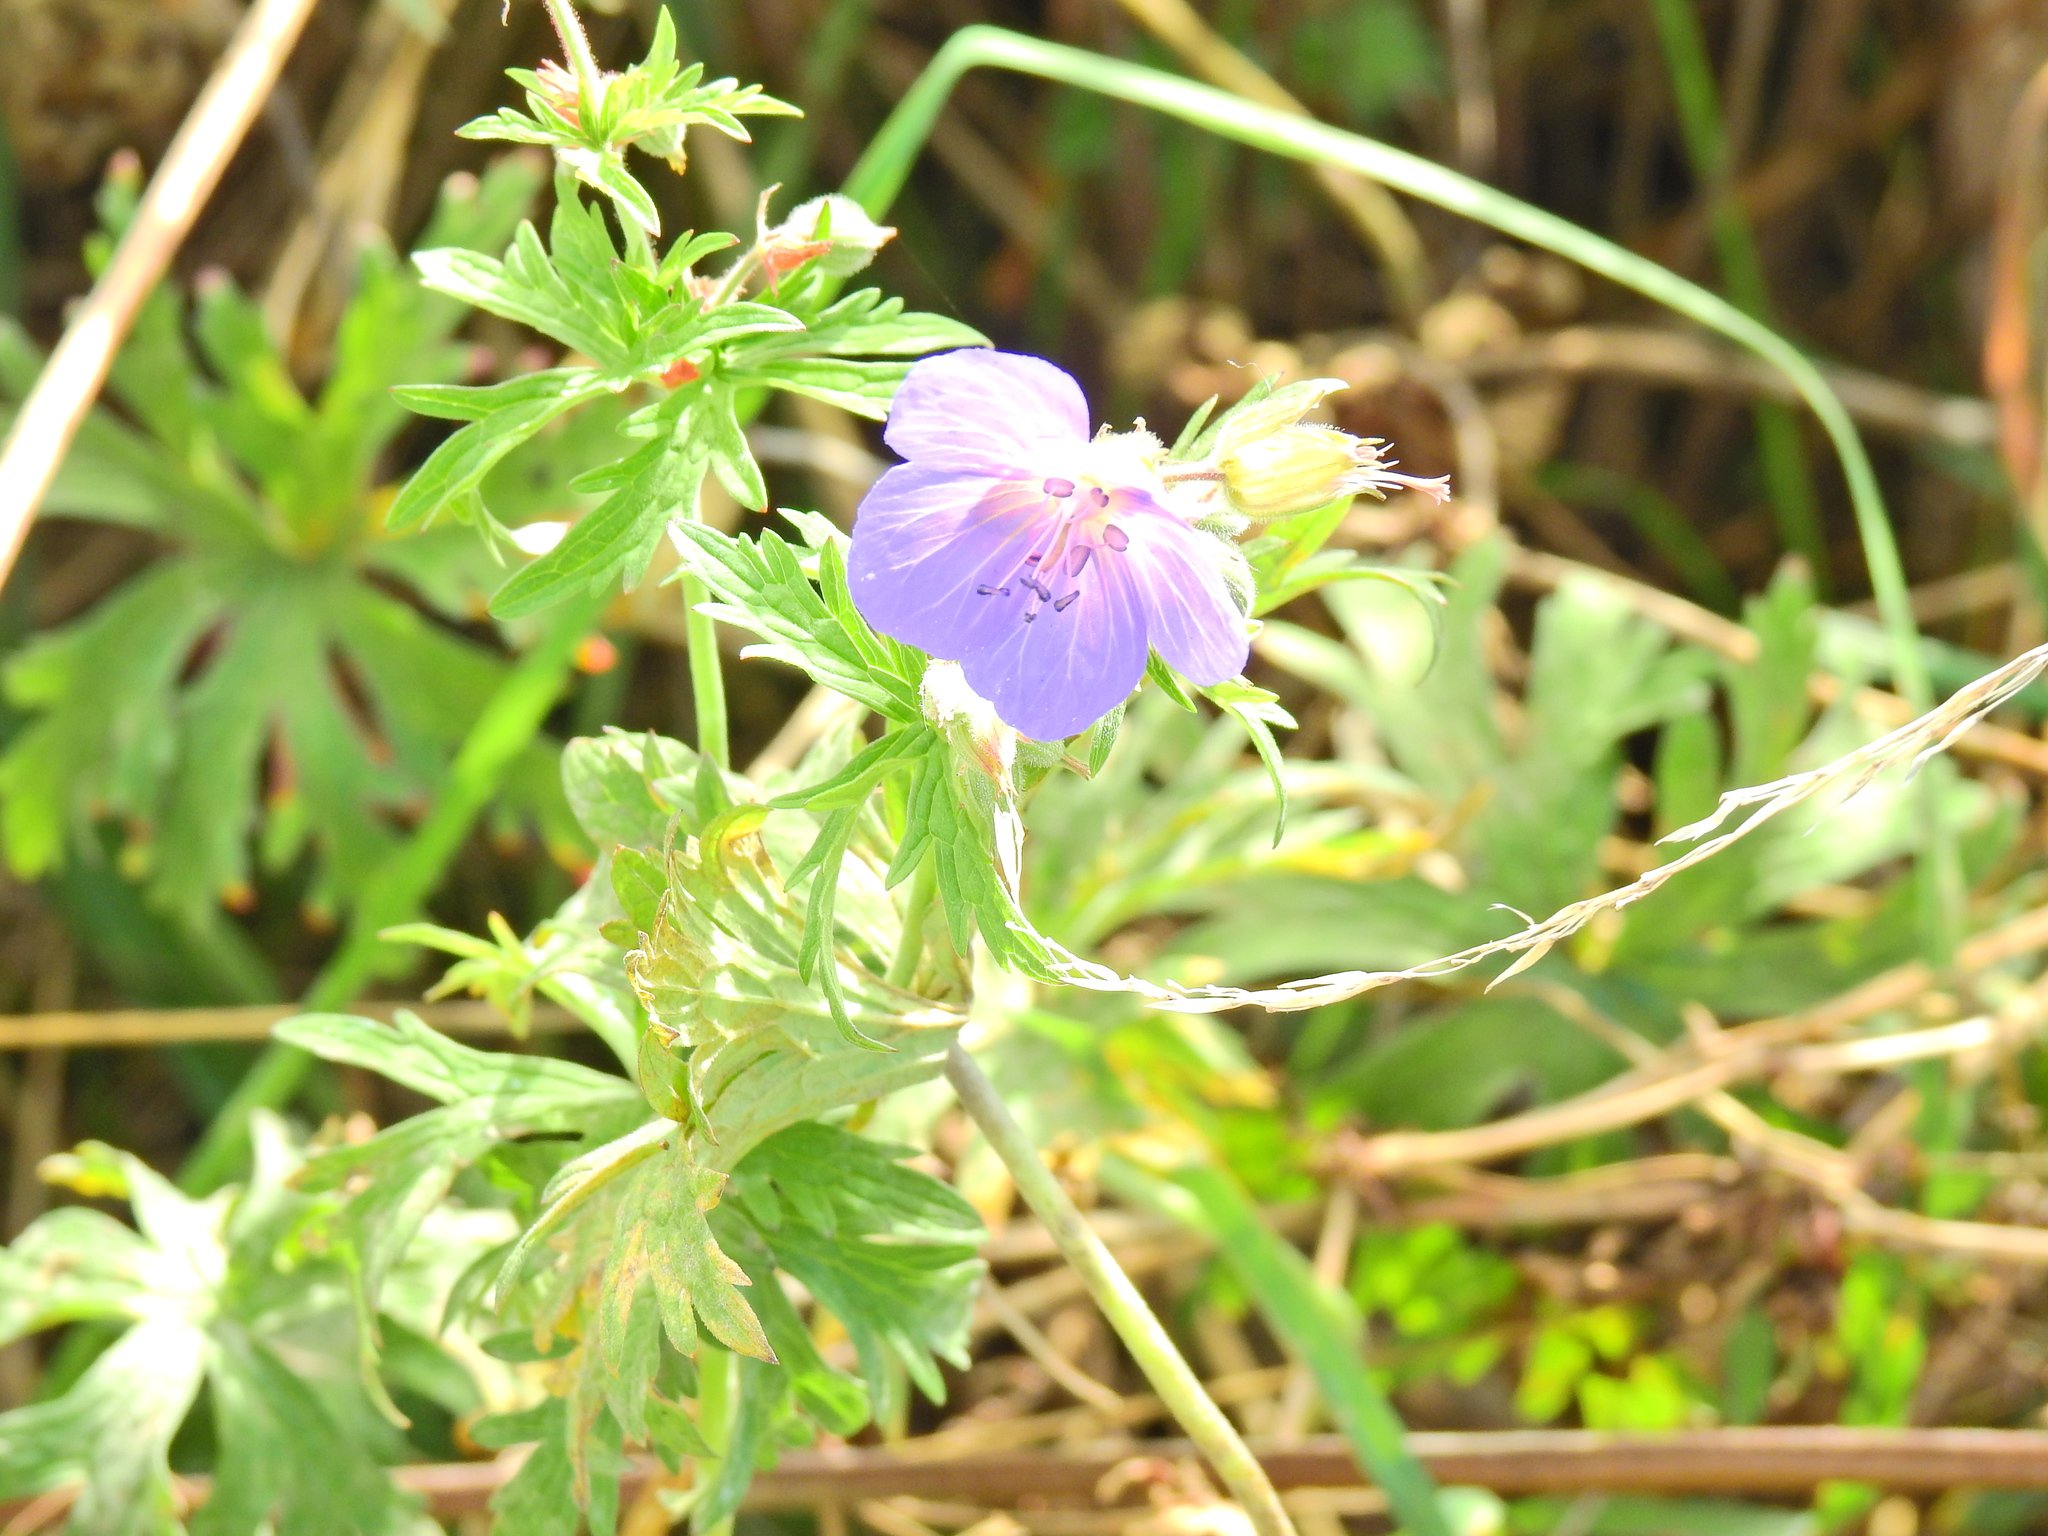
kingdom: Plantae
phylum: Tracheophyta
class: Magnoliopsida
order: Geraniales
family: Geraniaceae
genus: Geranium
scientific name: Geranium pratense
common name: Meadow crane's-bill
